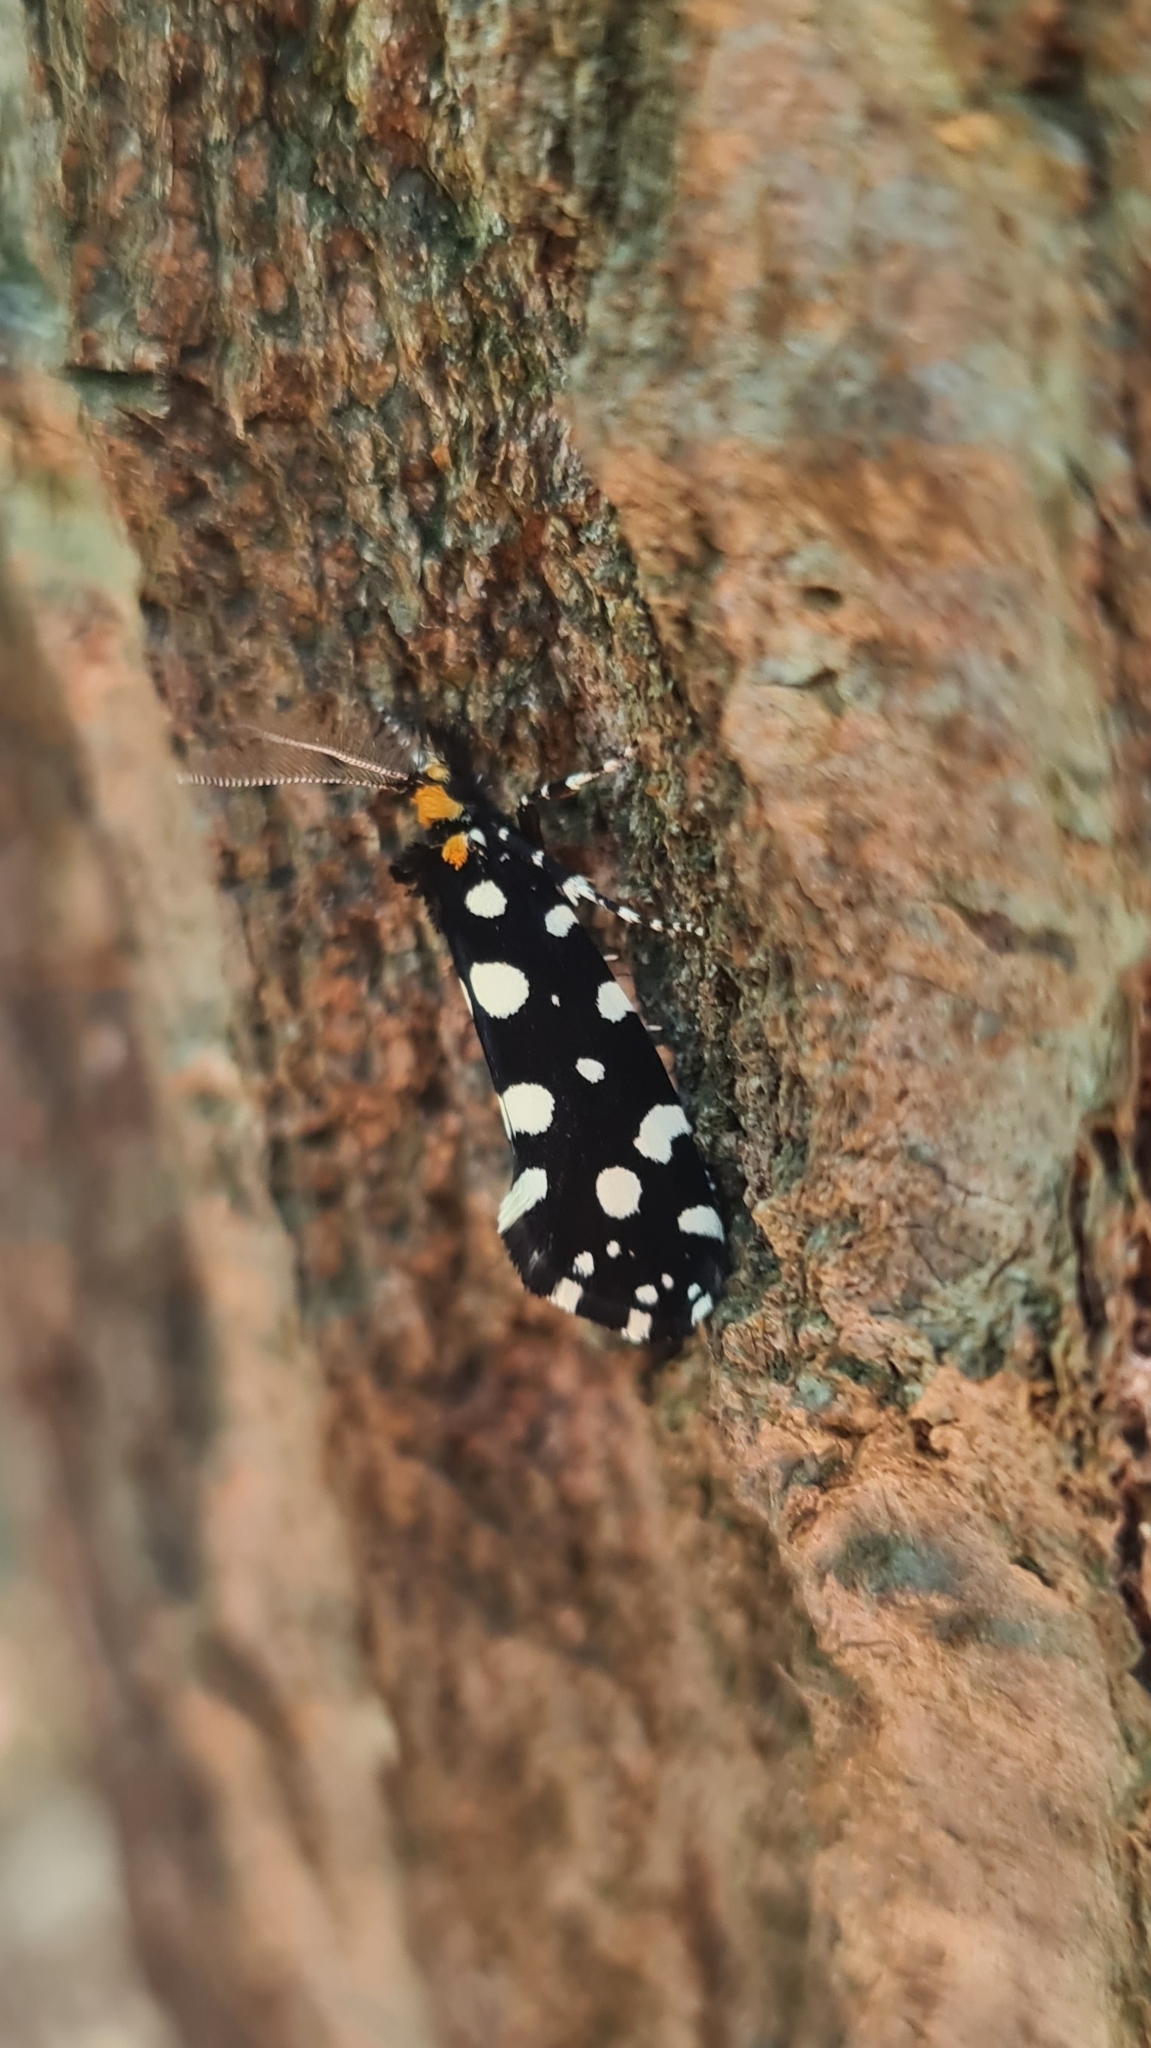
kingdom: Animalia
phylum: Arthropoda
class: Insecta
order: Lepidoptera
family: Tineidae
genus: Euplocamus
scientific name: Euplocamus anthracinalis
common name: Black clothes
